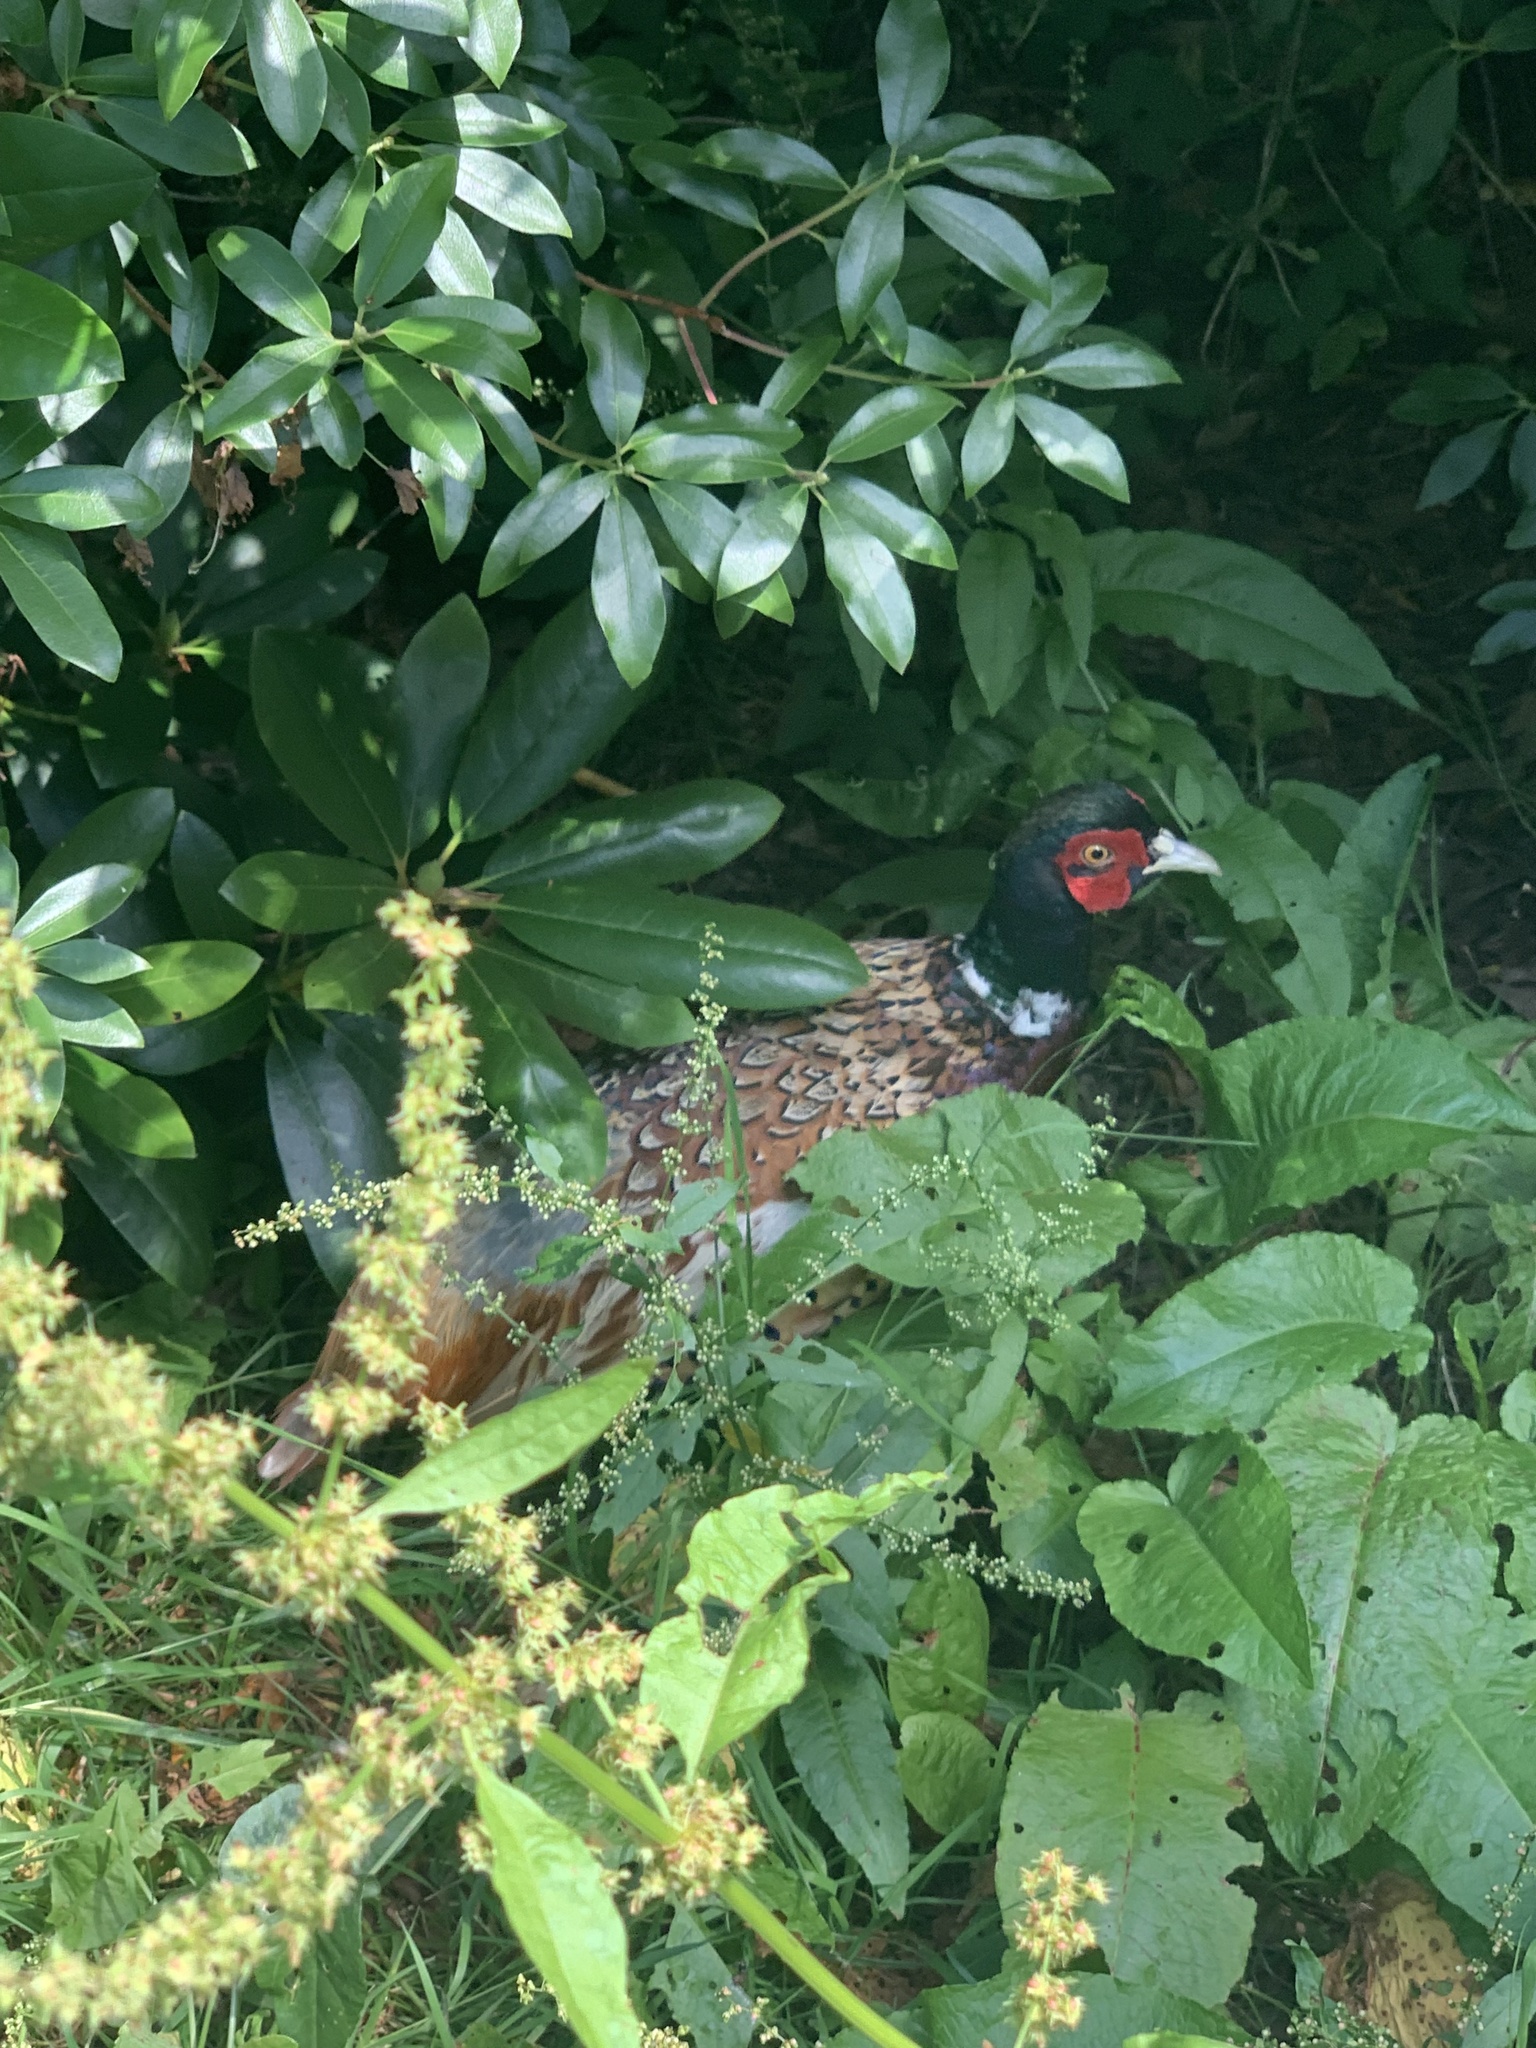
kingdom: Animalia
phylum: Chordata
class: Aves
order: Galliformes
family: Phasianidae
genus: Phasianus
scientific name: Phasianus colchicus
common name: Common pheasant
